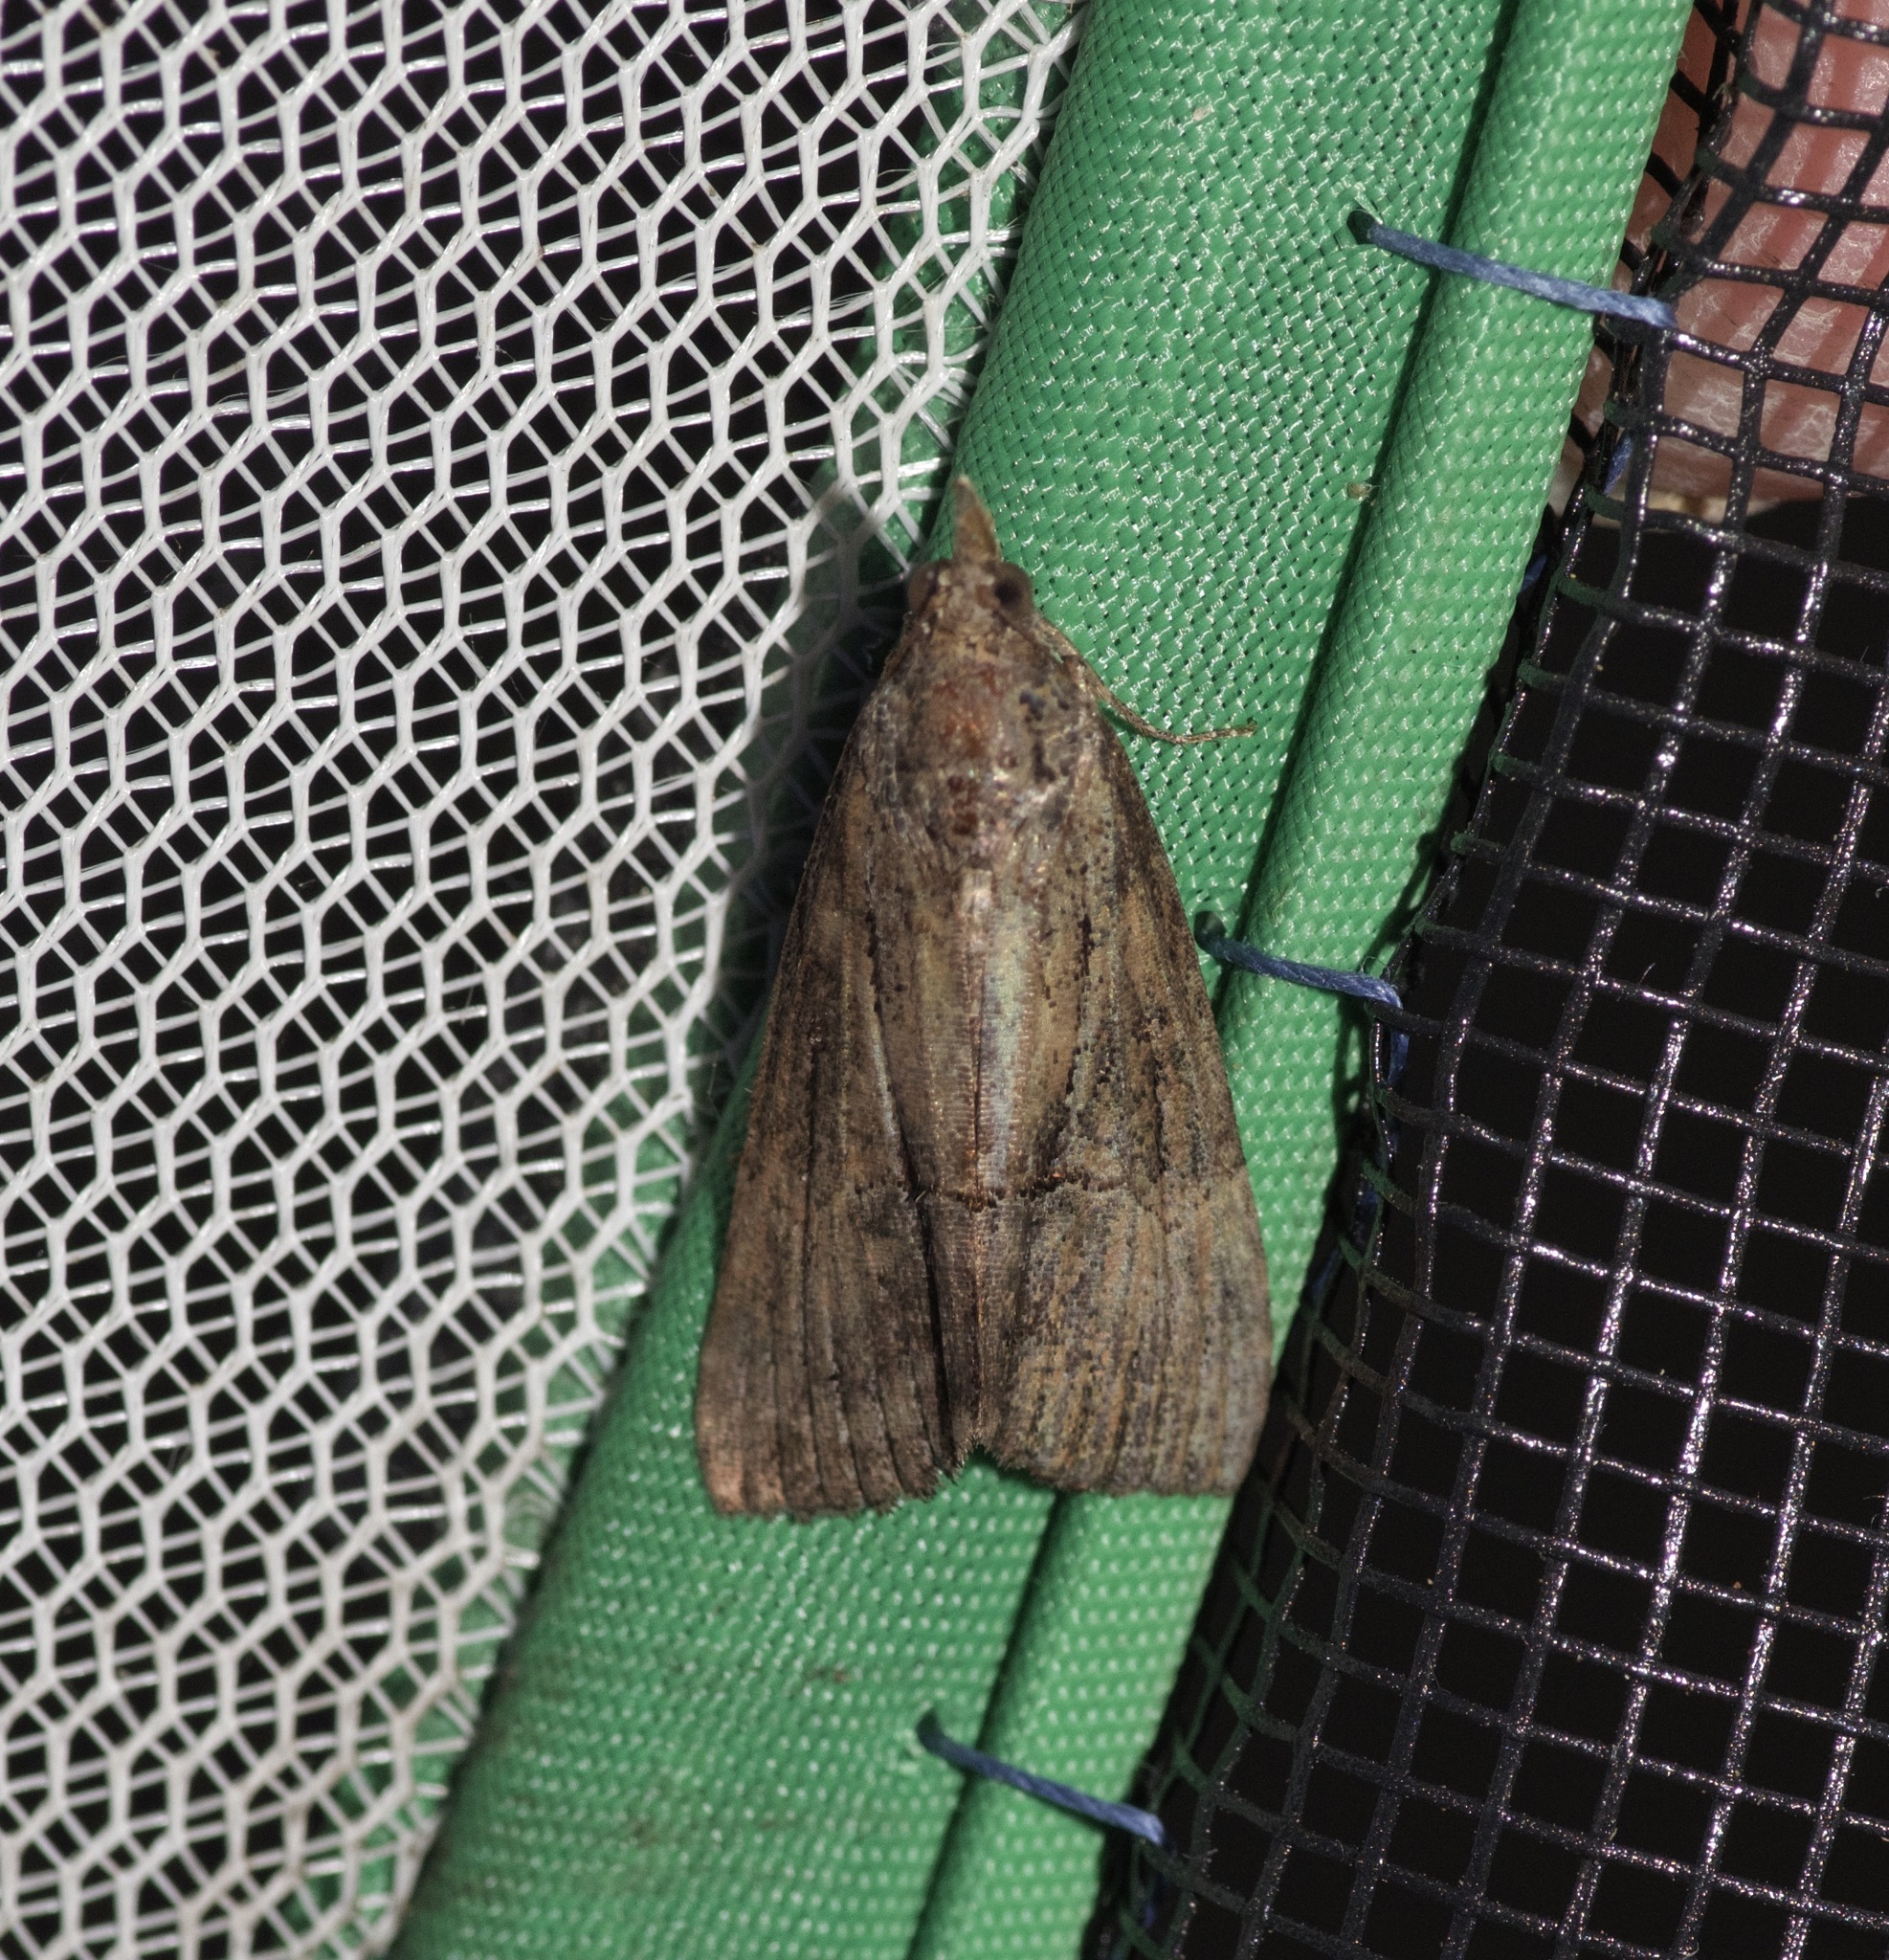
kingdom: Animalia
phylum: Arthropoda
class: Insecta
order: Lepidoptera
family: Erebidae
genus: Hypena
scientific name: Hypena scabra
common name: Green cloverworm
